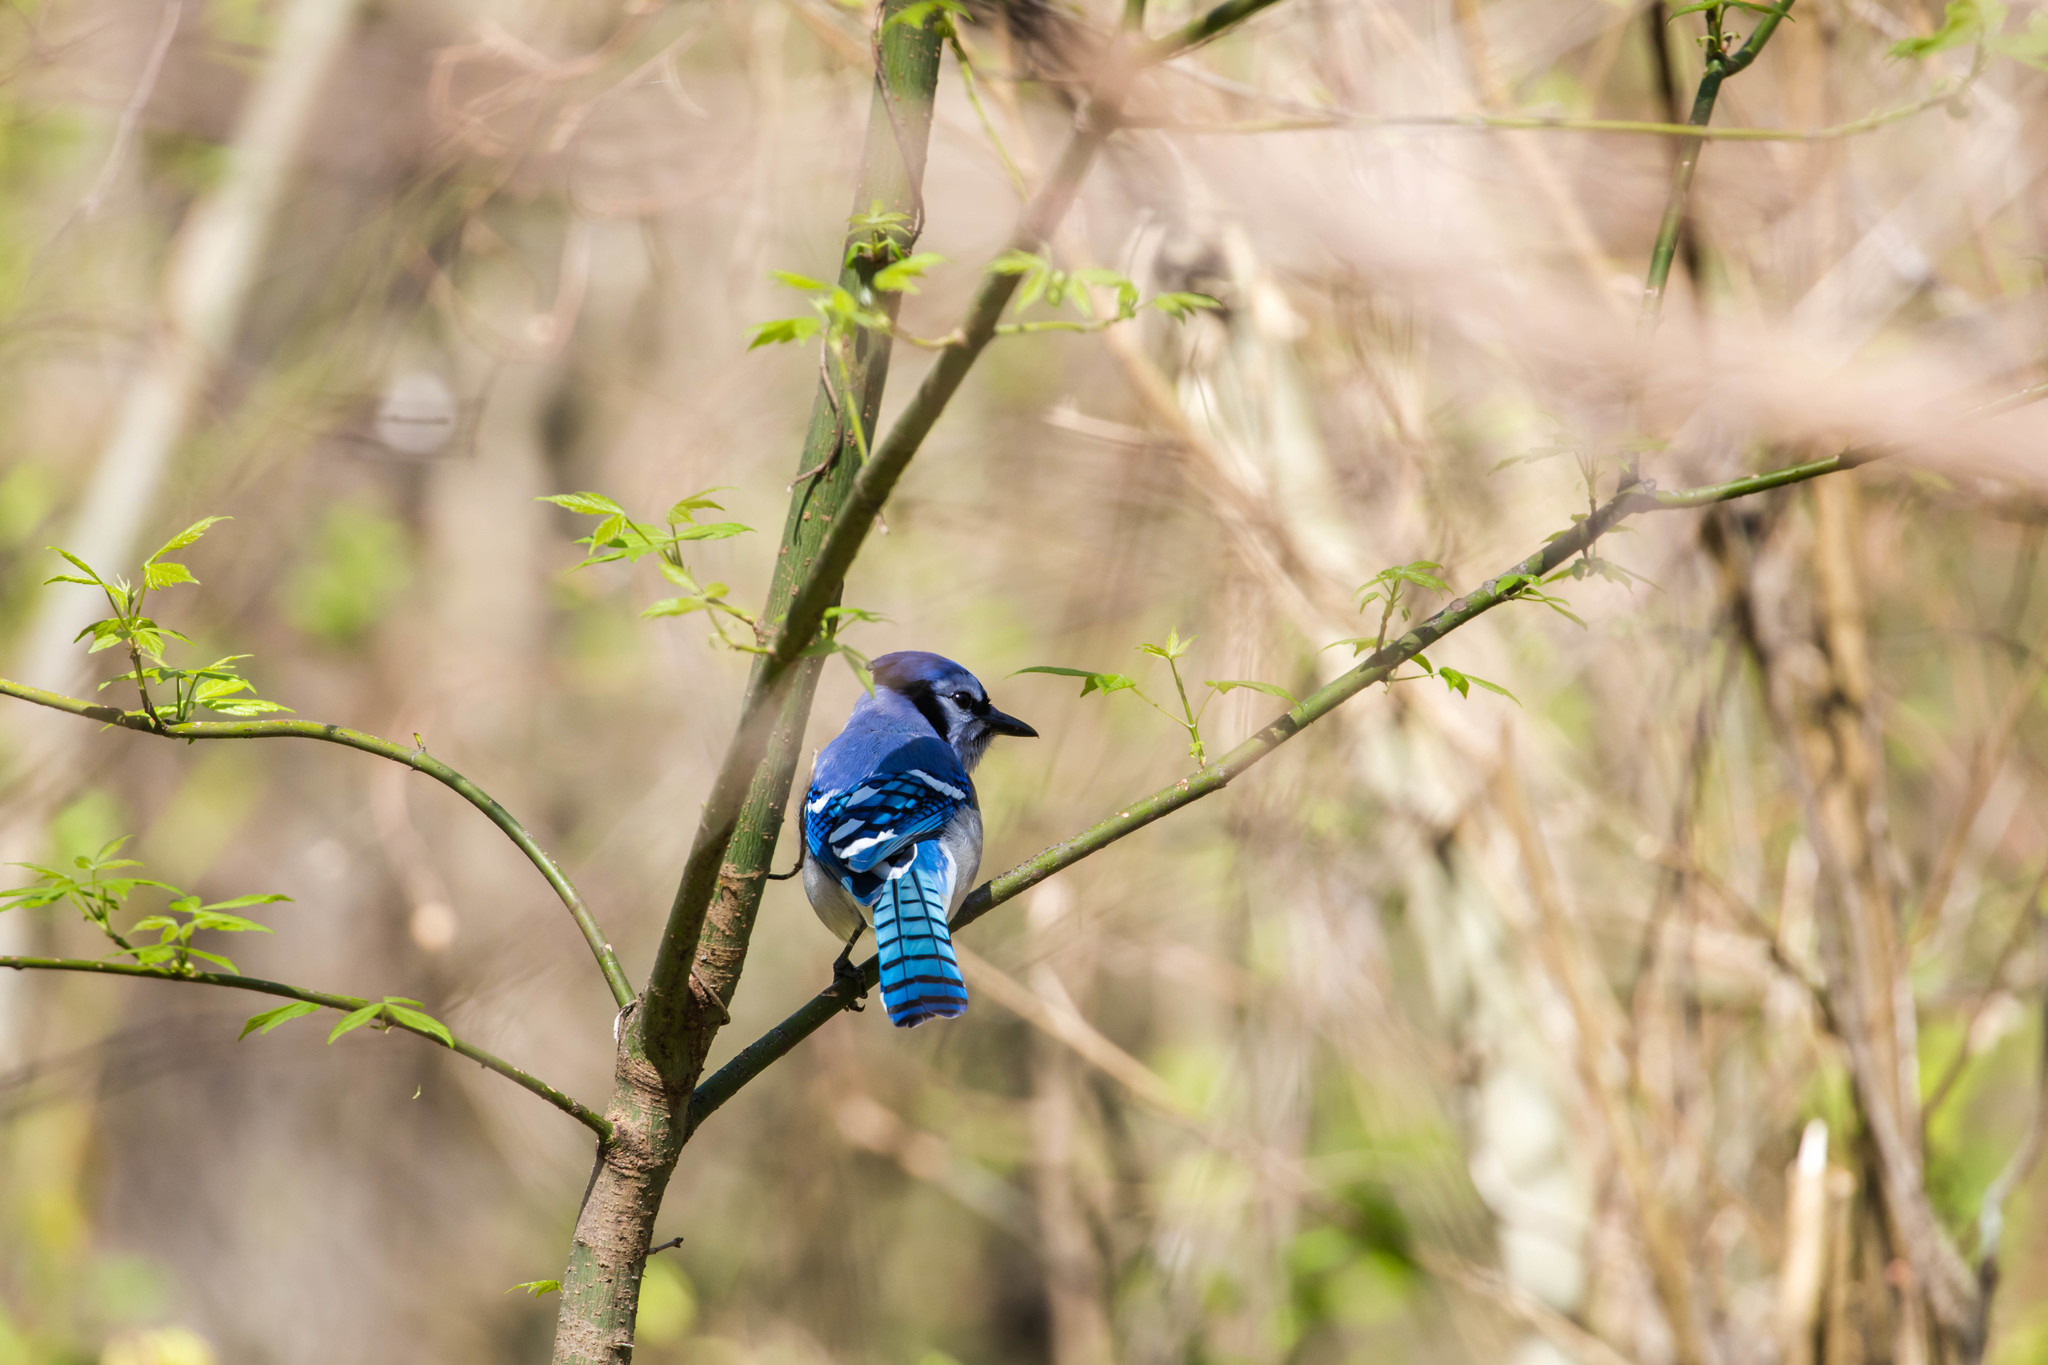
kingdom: Animalia
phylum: Chordata
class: Aves
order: Passeriformes
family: Corvidae
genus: Cyanocitta
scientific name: Cyanocitta cristata
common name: Blue jay
